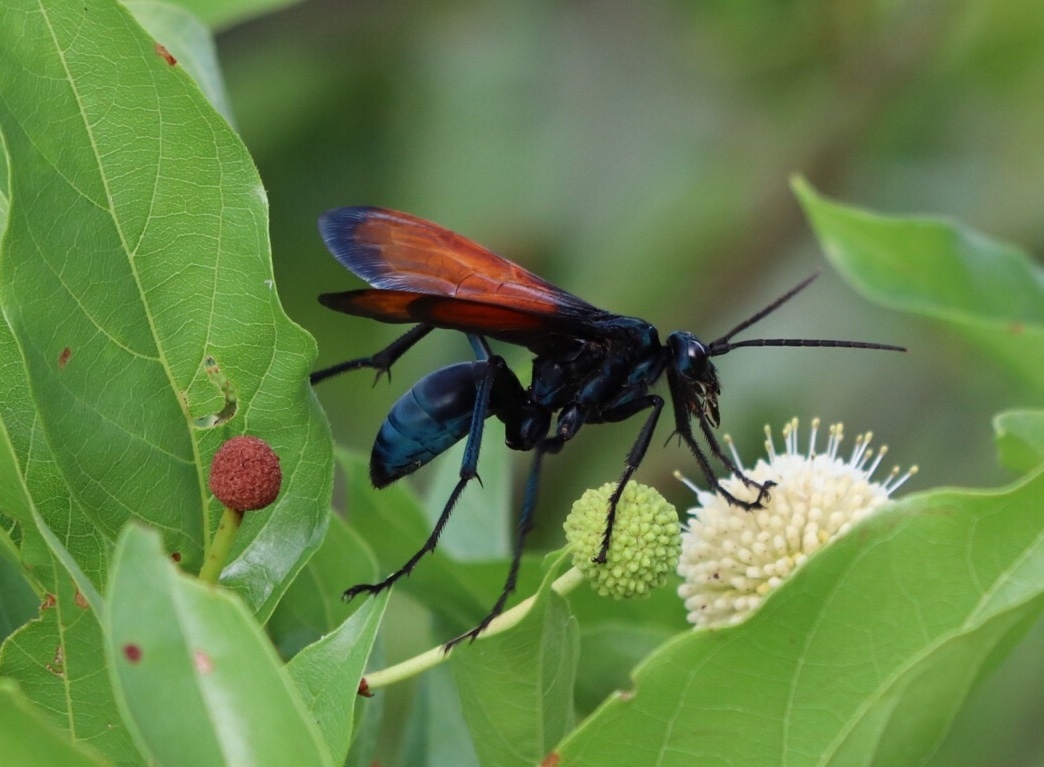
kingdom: Animalia
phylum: Arthropoda
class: Insecta
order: Hymenoptera
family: Pompilidae
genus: Pepsis
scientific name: Pepsis grossa
